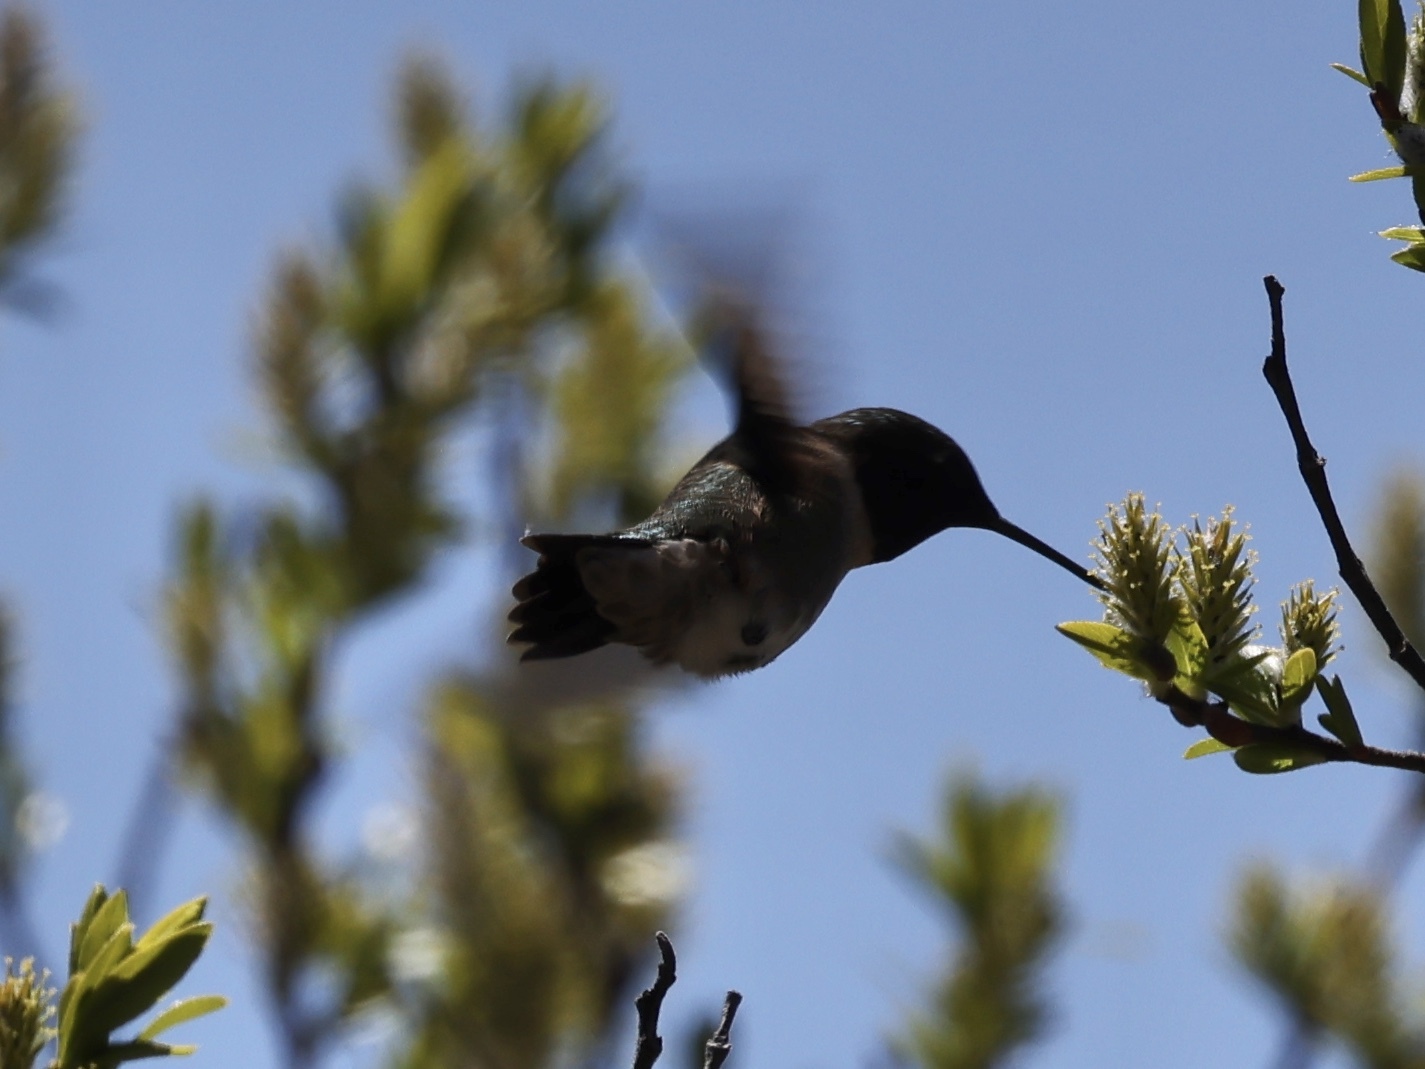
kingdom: Animalia
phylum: Chordata
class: Aves
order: Apodiformes
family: Trochilidae
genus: Archilochus
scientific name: Archilochus colubris
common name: Ruby-throated hummingbird
